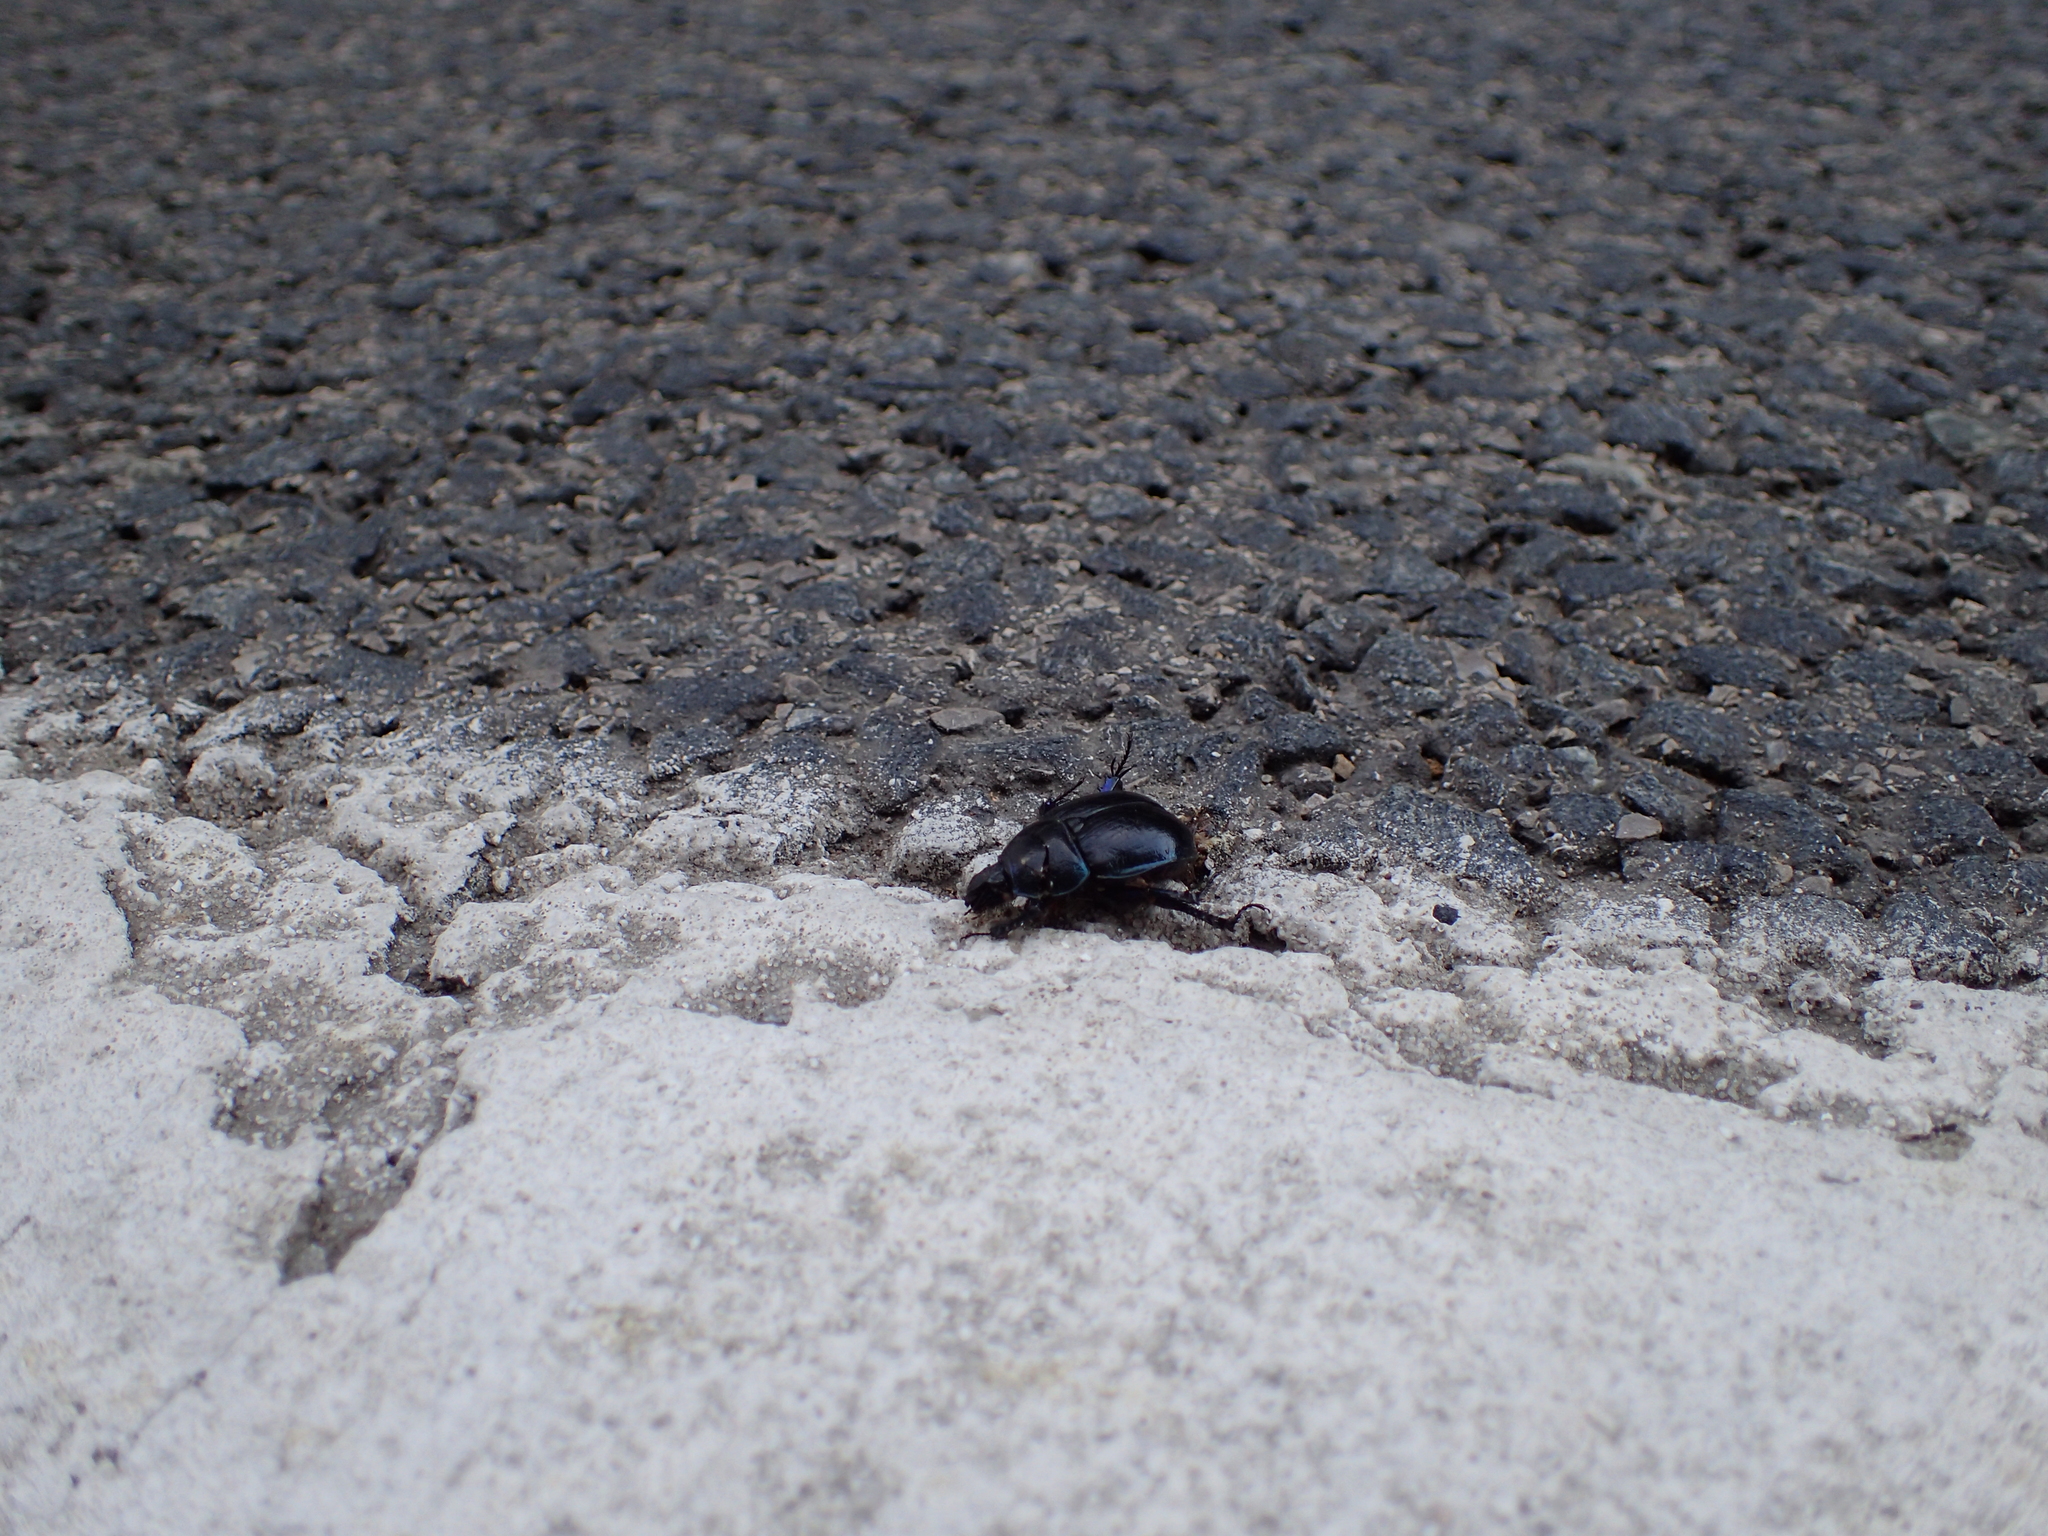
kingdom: Animalia
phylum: Arthropoda
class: Insecta
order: Coleoptera
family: Geotrupidae
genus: Anoplotrupes
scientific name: Anoplotrupes stercorosus
